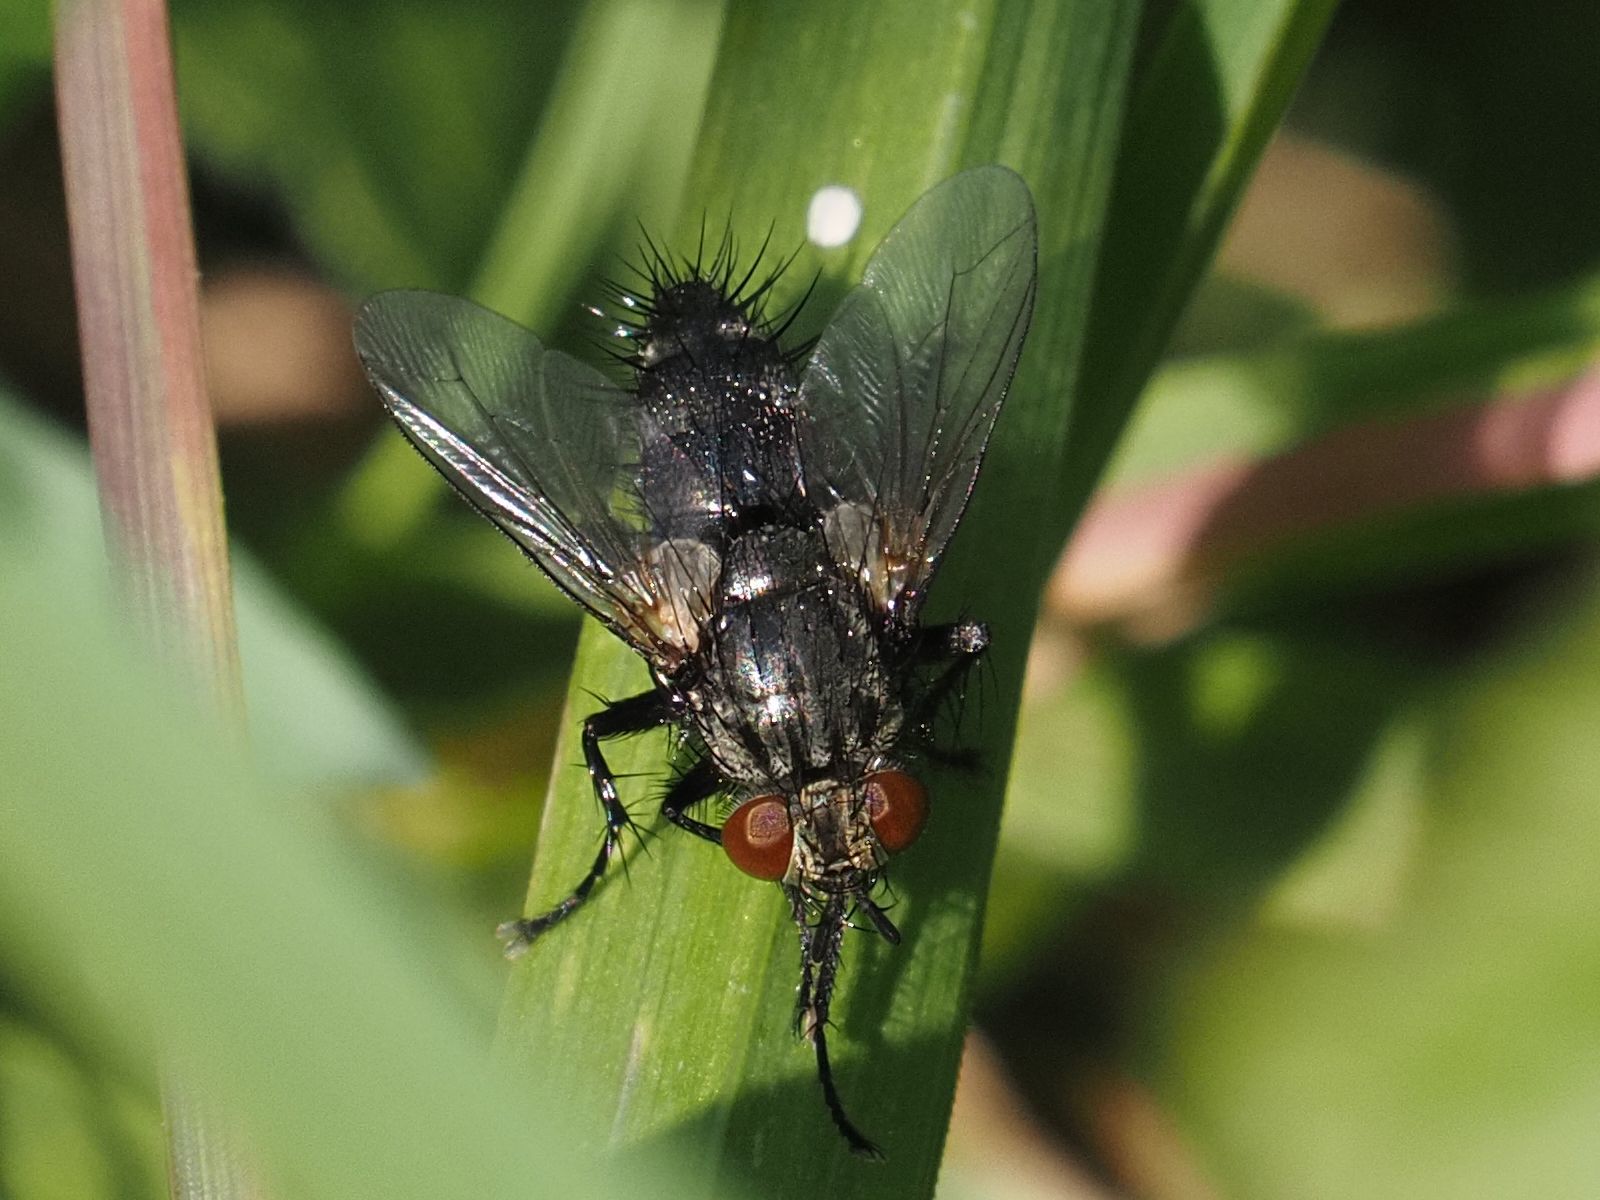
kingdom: Animalia
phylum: Arthropoda
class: Insecta
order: Diptera
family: Tachinidae
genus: Voria
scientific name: Voria ruralis
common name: Parasitic fly
